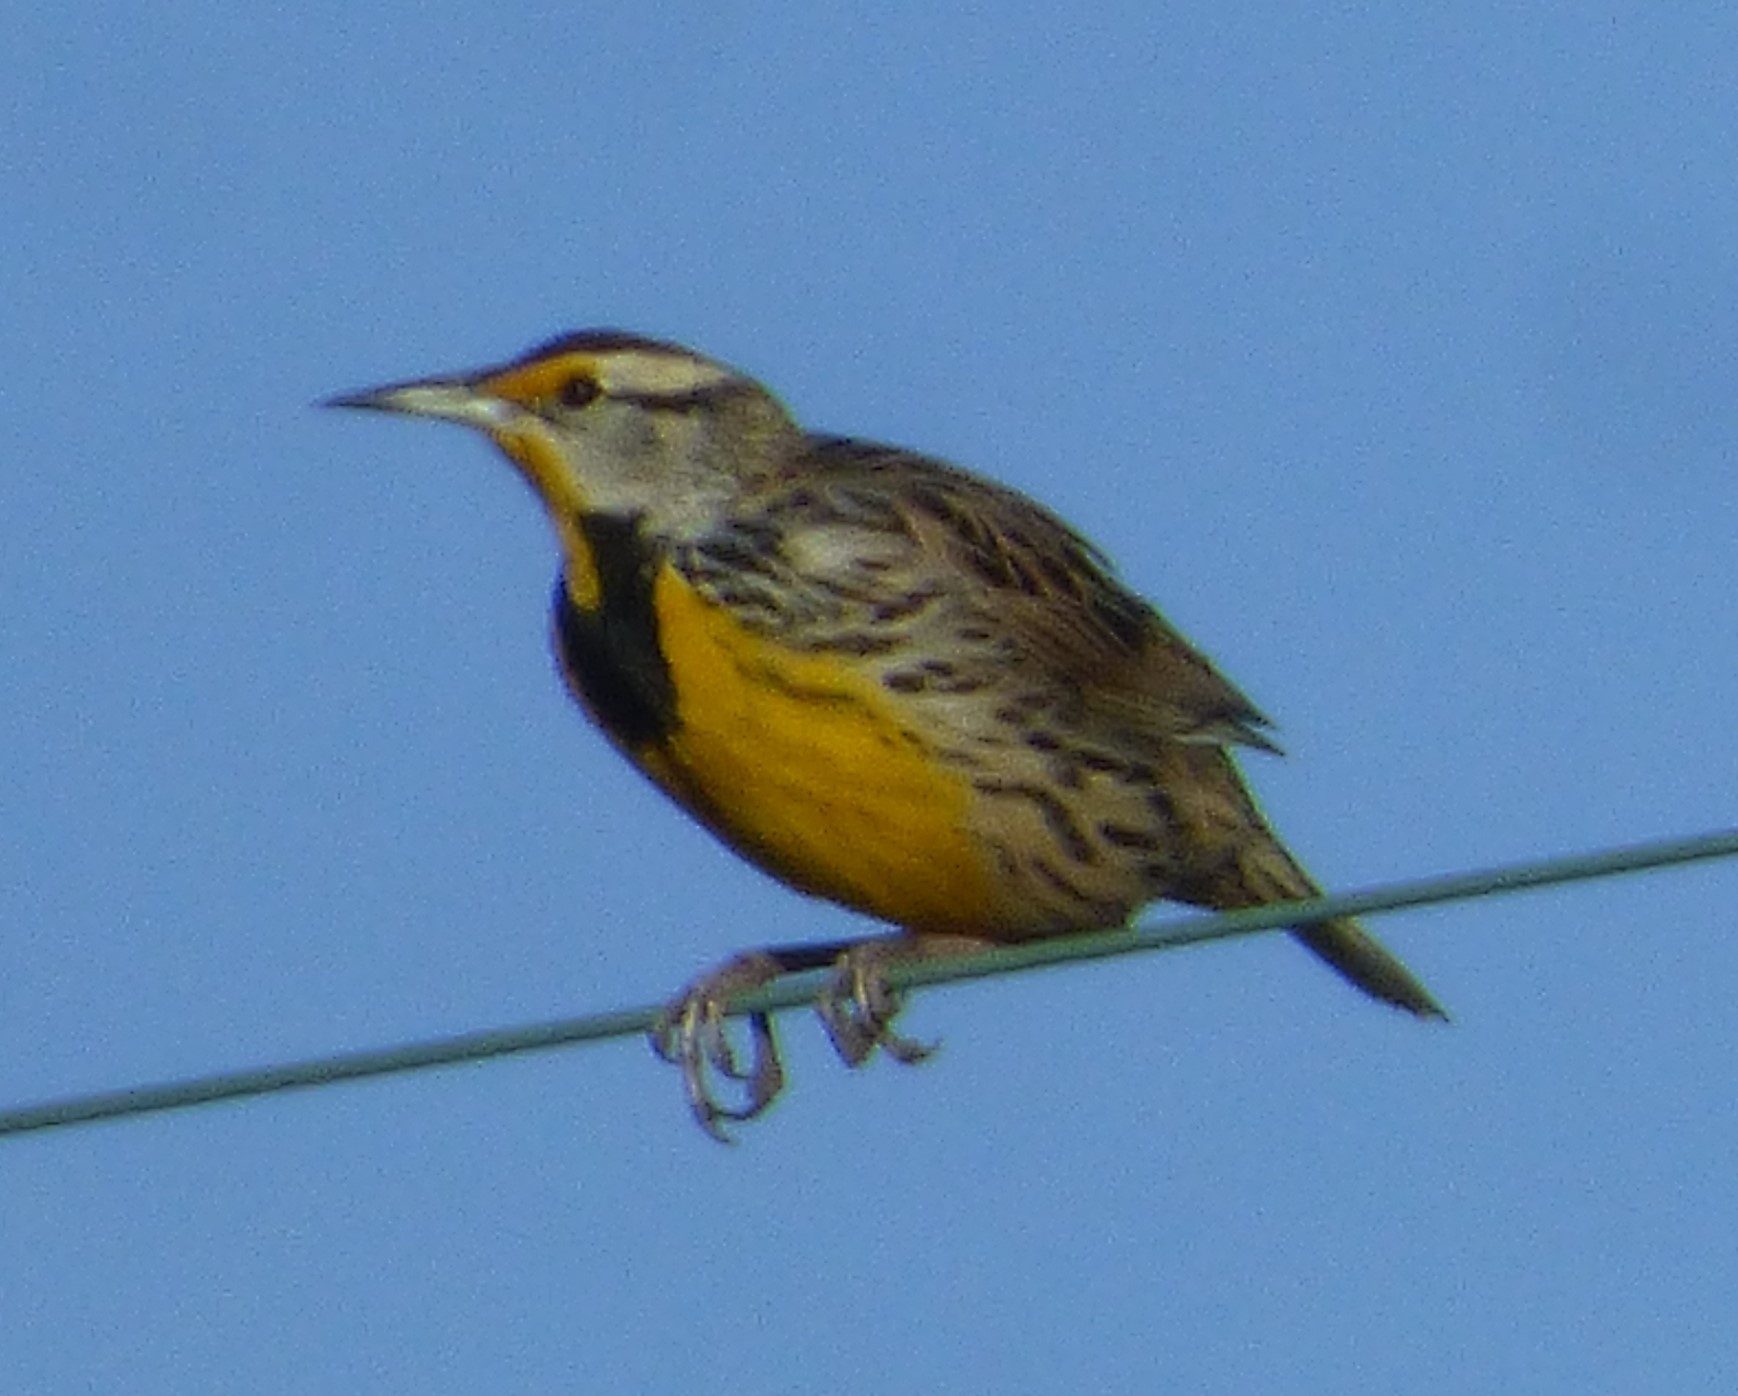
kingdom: Animalia
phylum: Chordata
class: Aves
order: Passeriformes
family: Icteridae
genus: Sturnella
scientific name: Sturnella magna
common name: Eastern meadowlark
